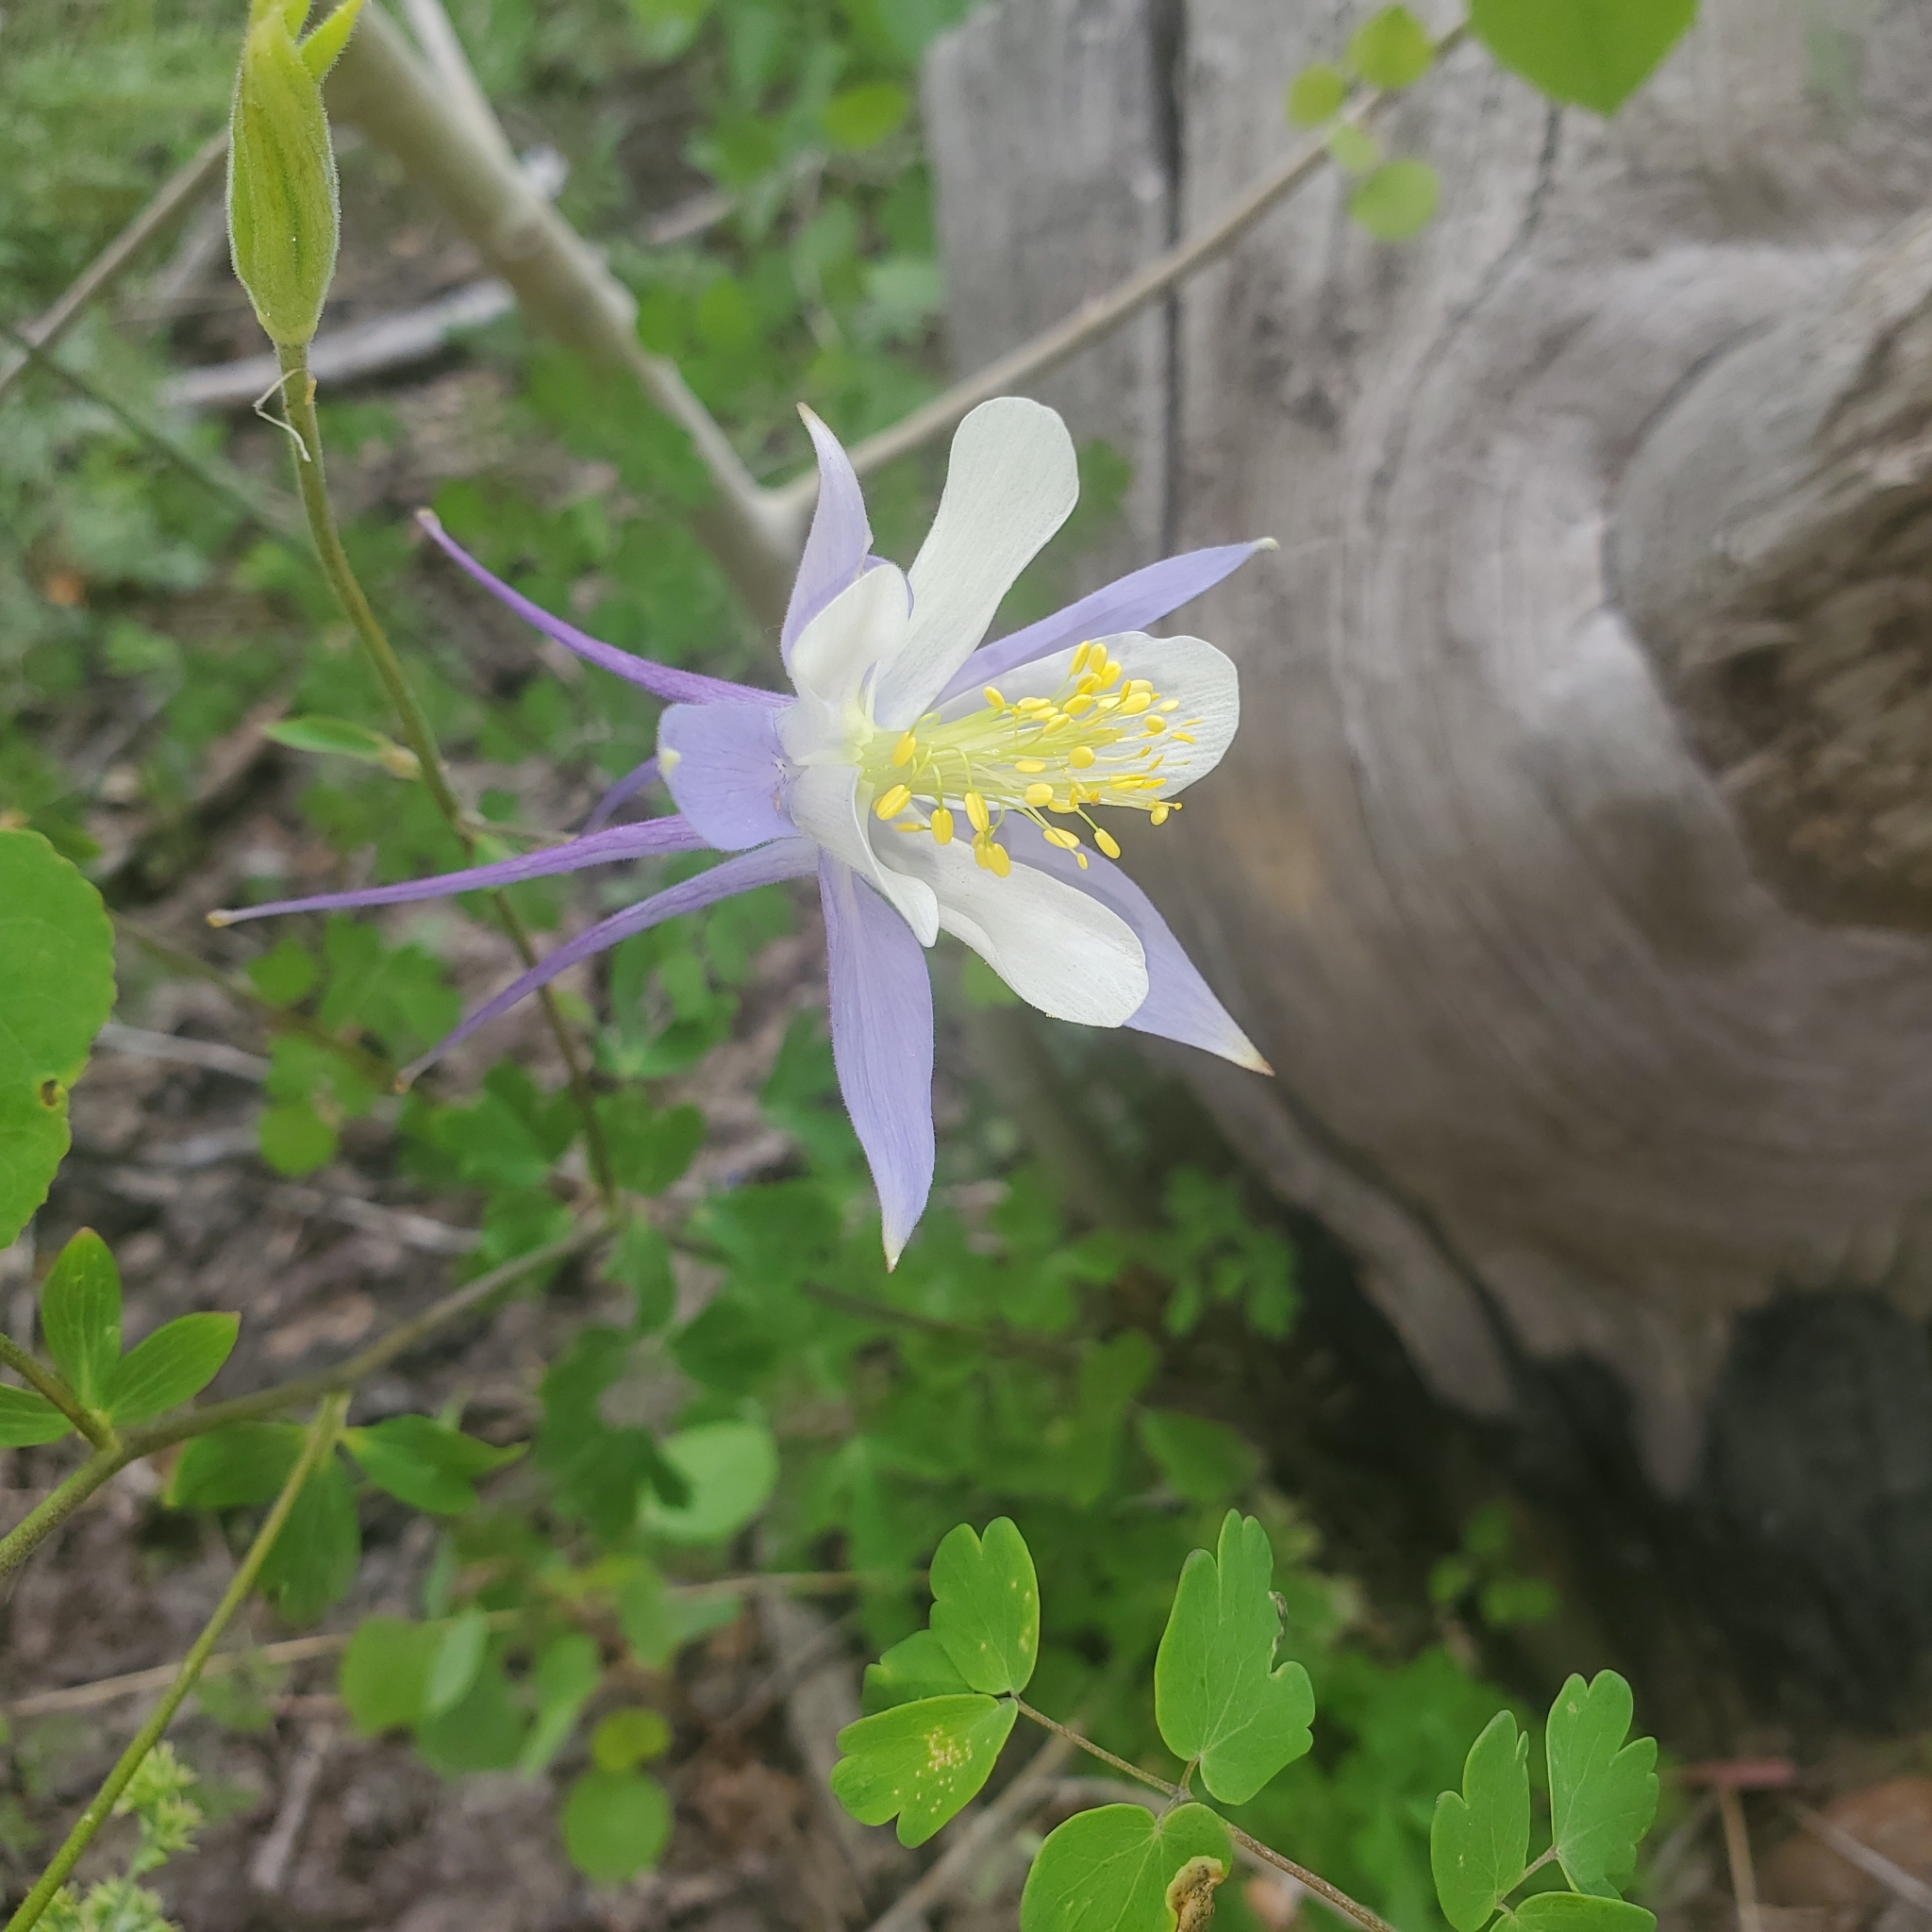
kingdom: Plantae
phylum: Tracheophyta
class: Magnoliopsida
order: Ranunculales
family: Ranunculaceae
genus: Aquilegia
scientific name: Aquilegia coerulea
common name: Rocky mountain columbine
